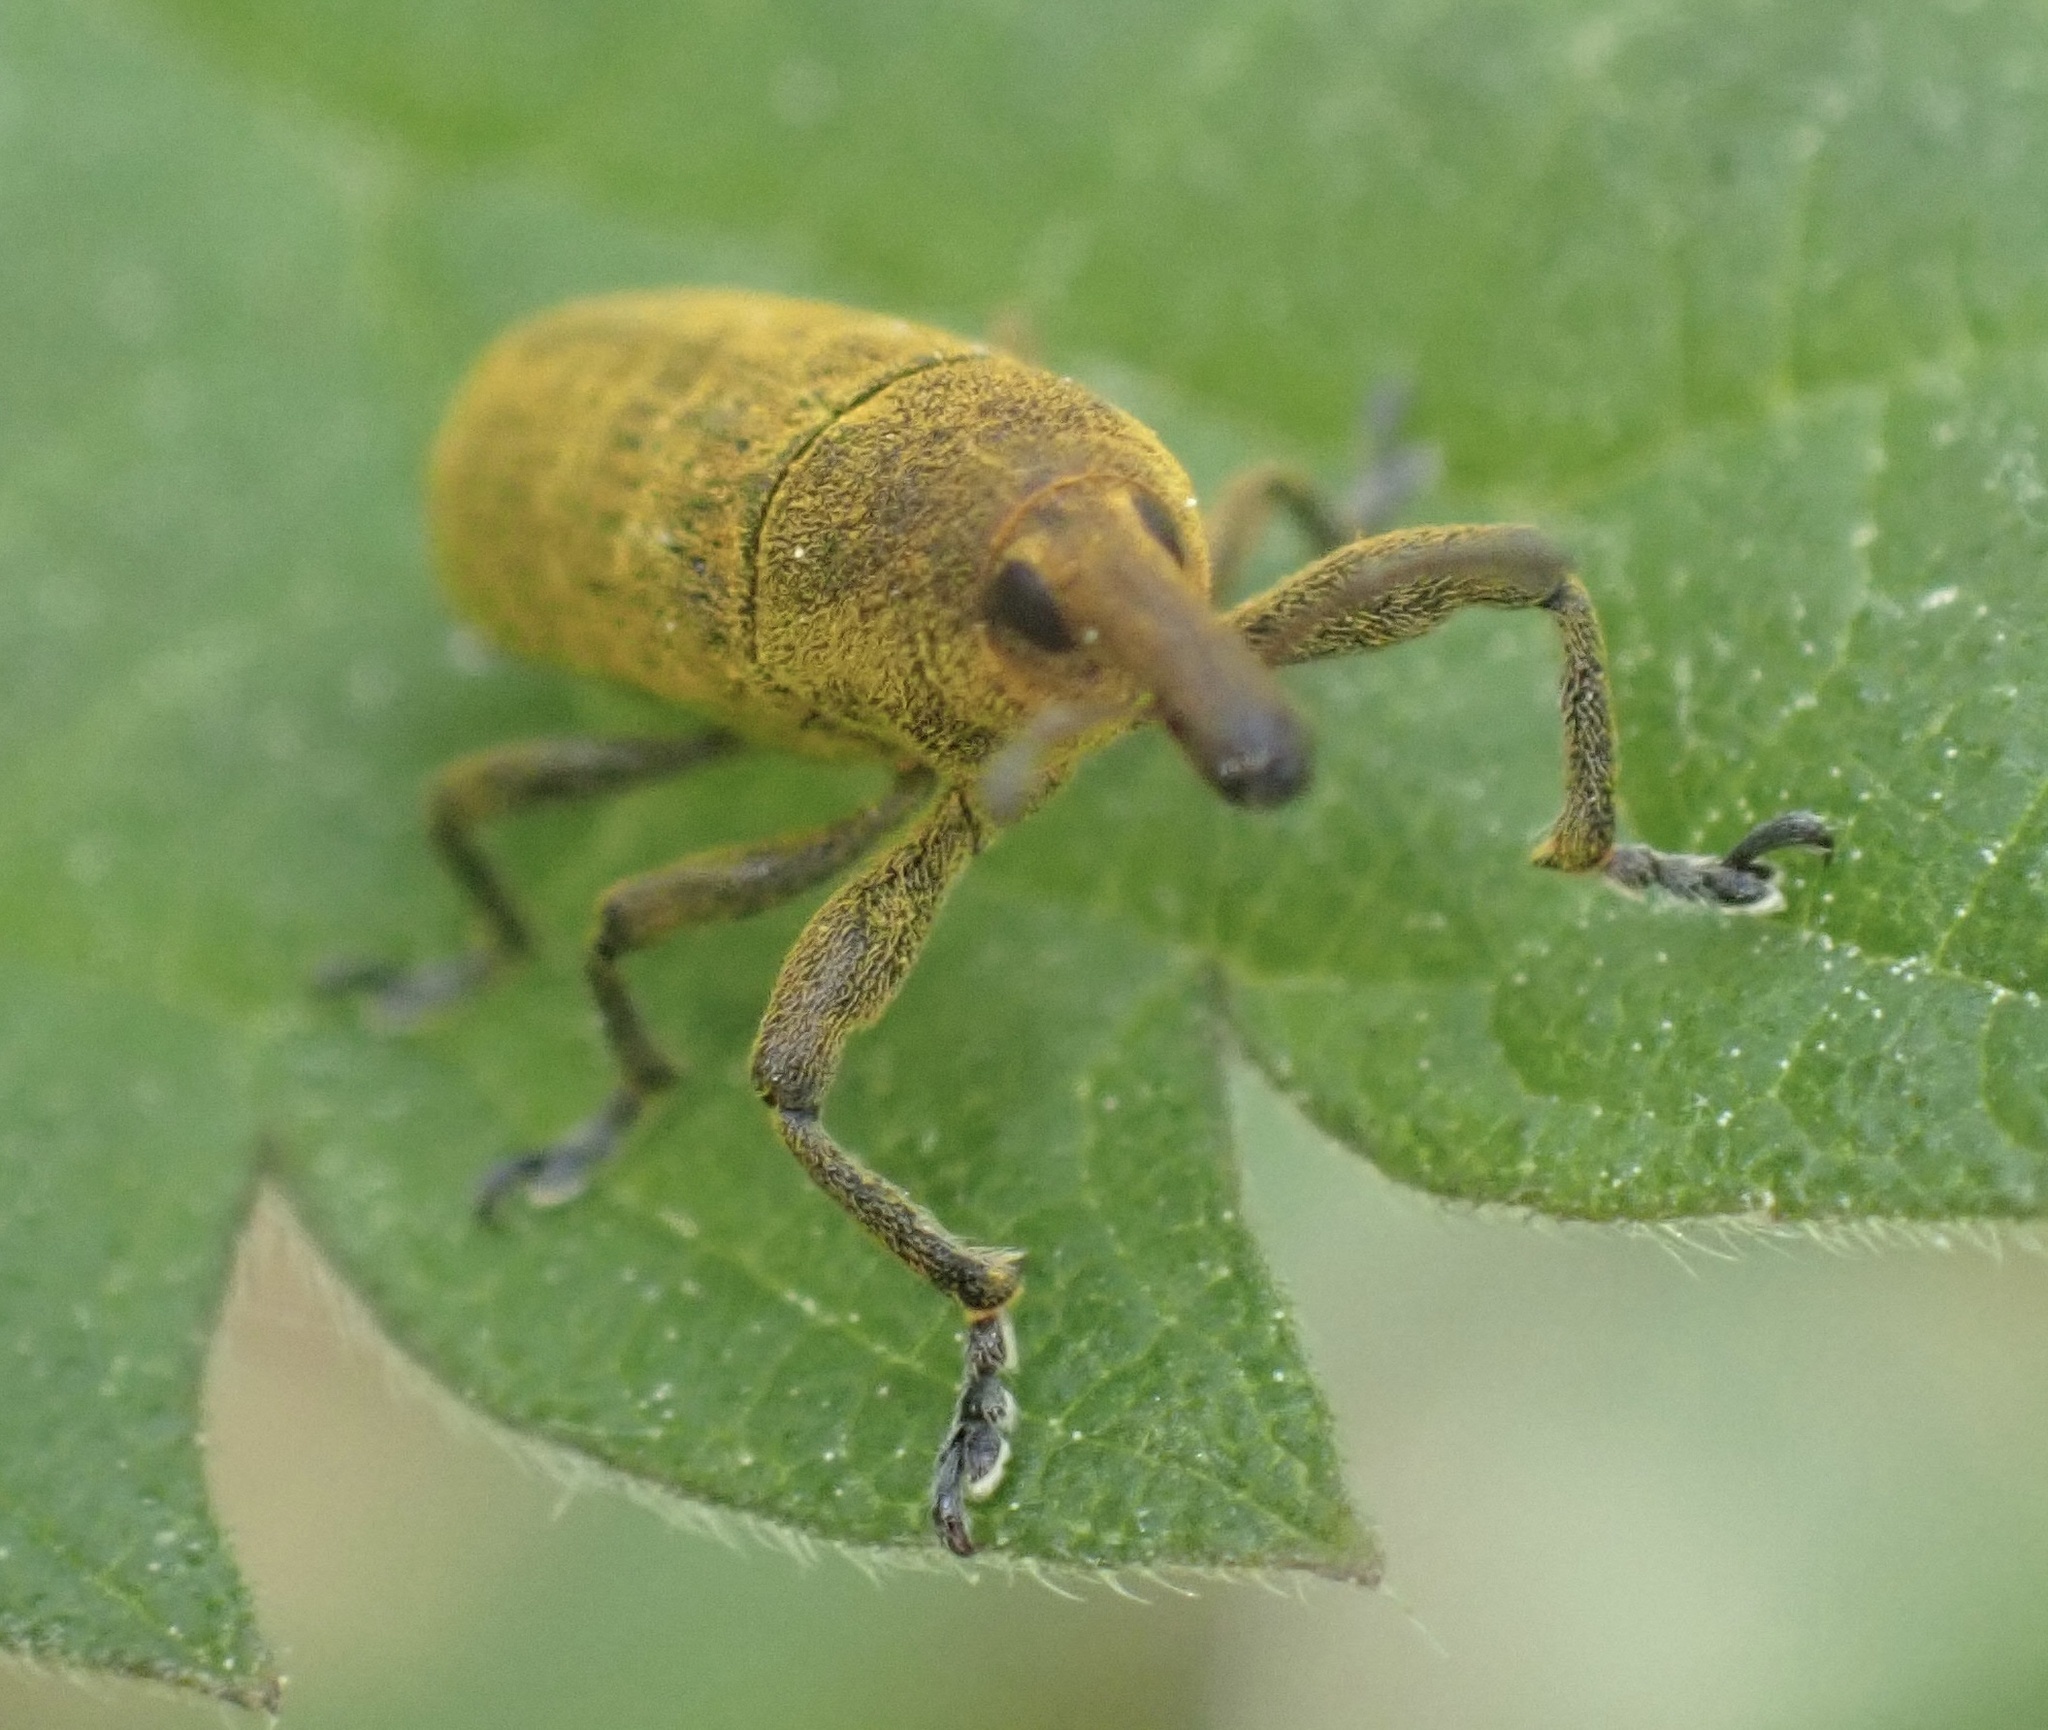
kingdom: Animalia
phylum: Arthropoda
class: Insecta
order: Coleoptera
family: Curculionidae
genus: Lixus
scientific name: Lixus bardanae
